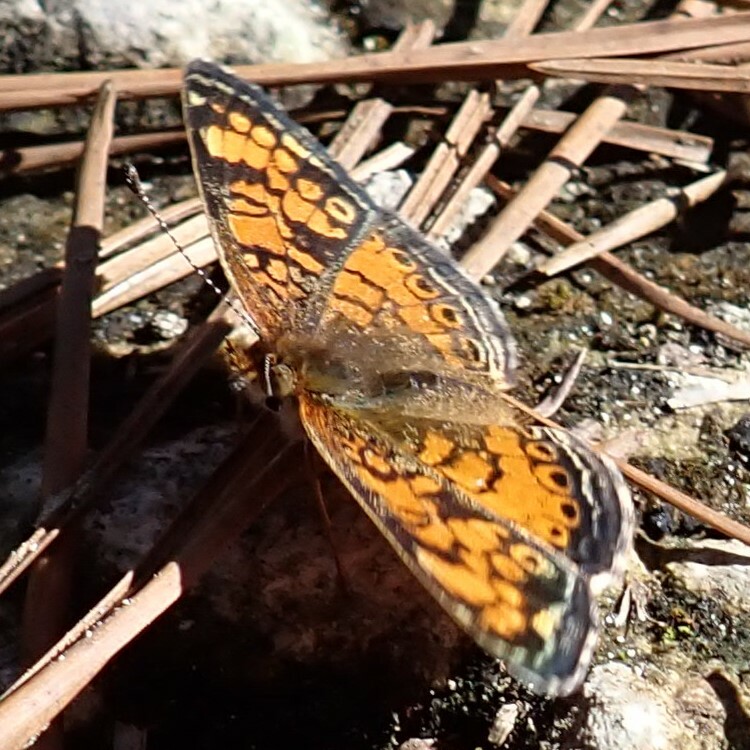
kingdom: Animalia
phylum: Arthropoda
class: Insecta
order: Lepidoptera
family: Nymphalidae
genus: Phyciodes
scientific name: Phyciodes tharos
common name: Pearl crescent
